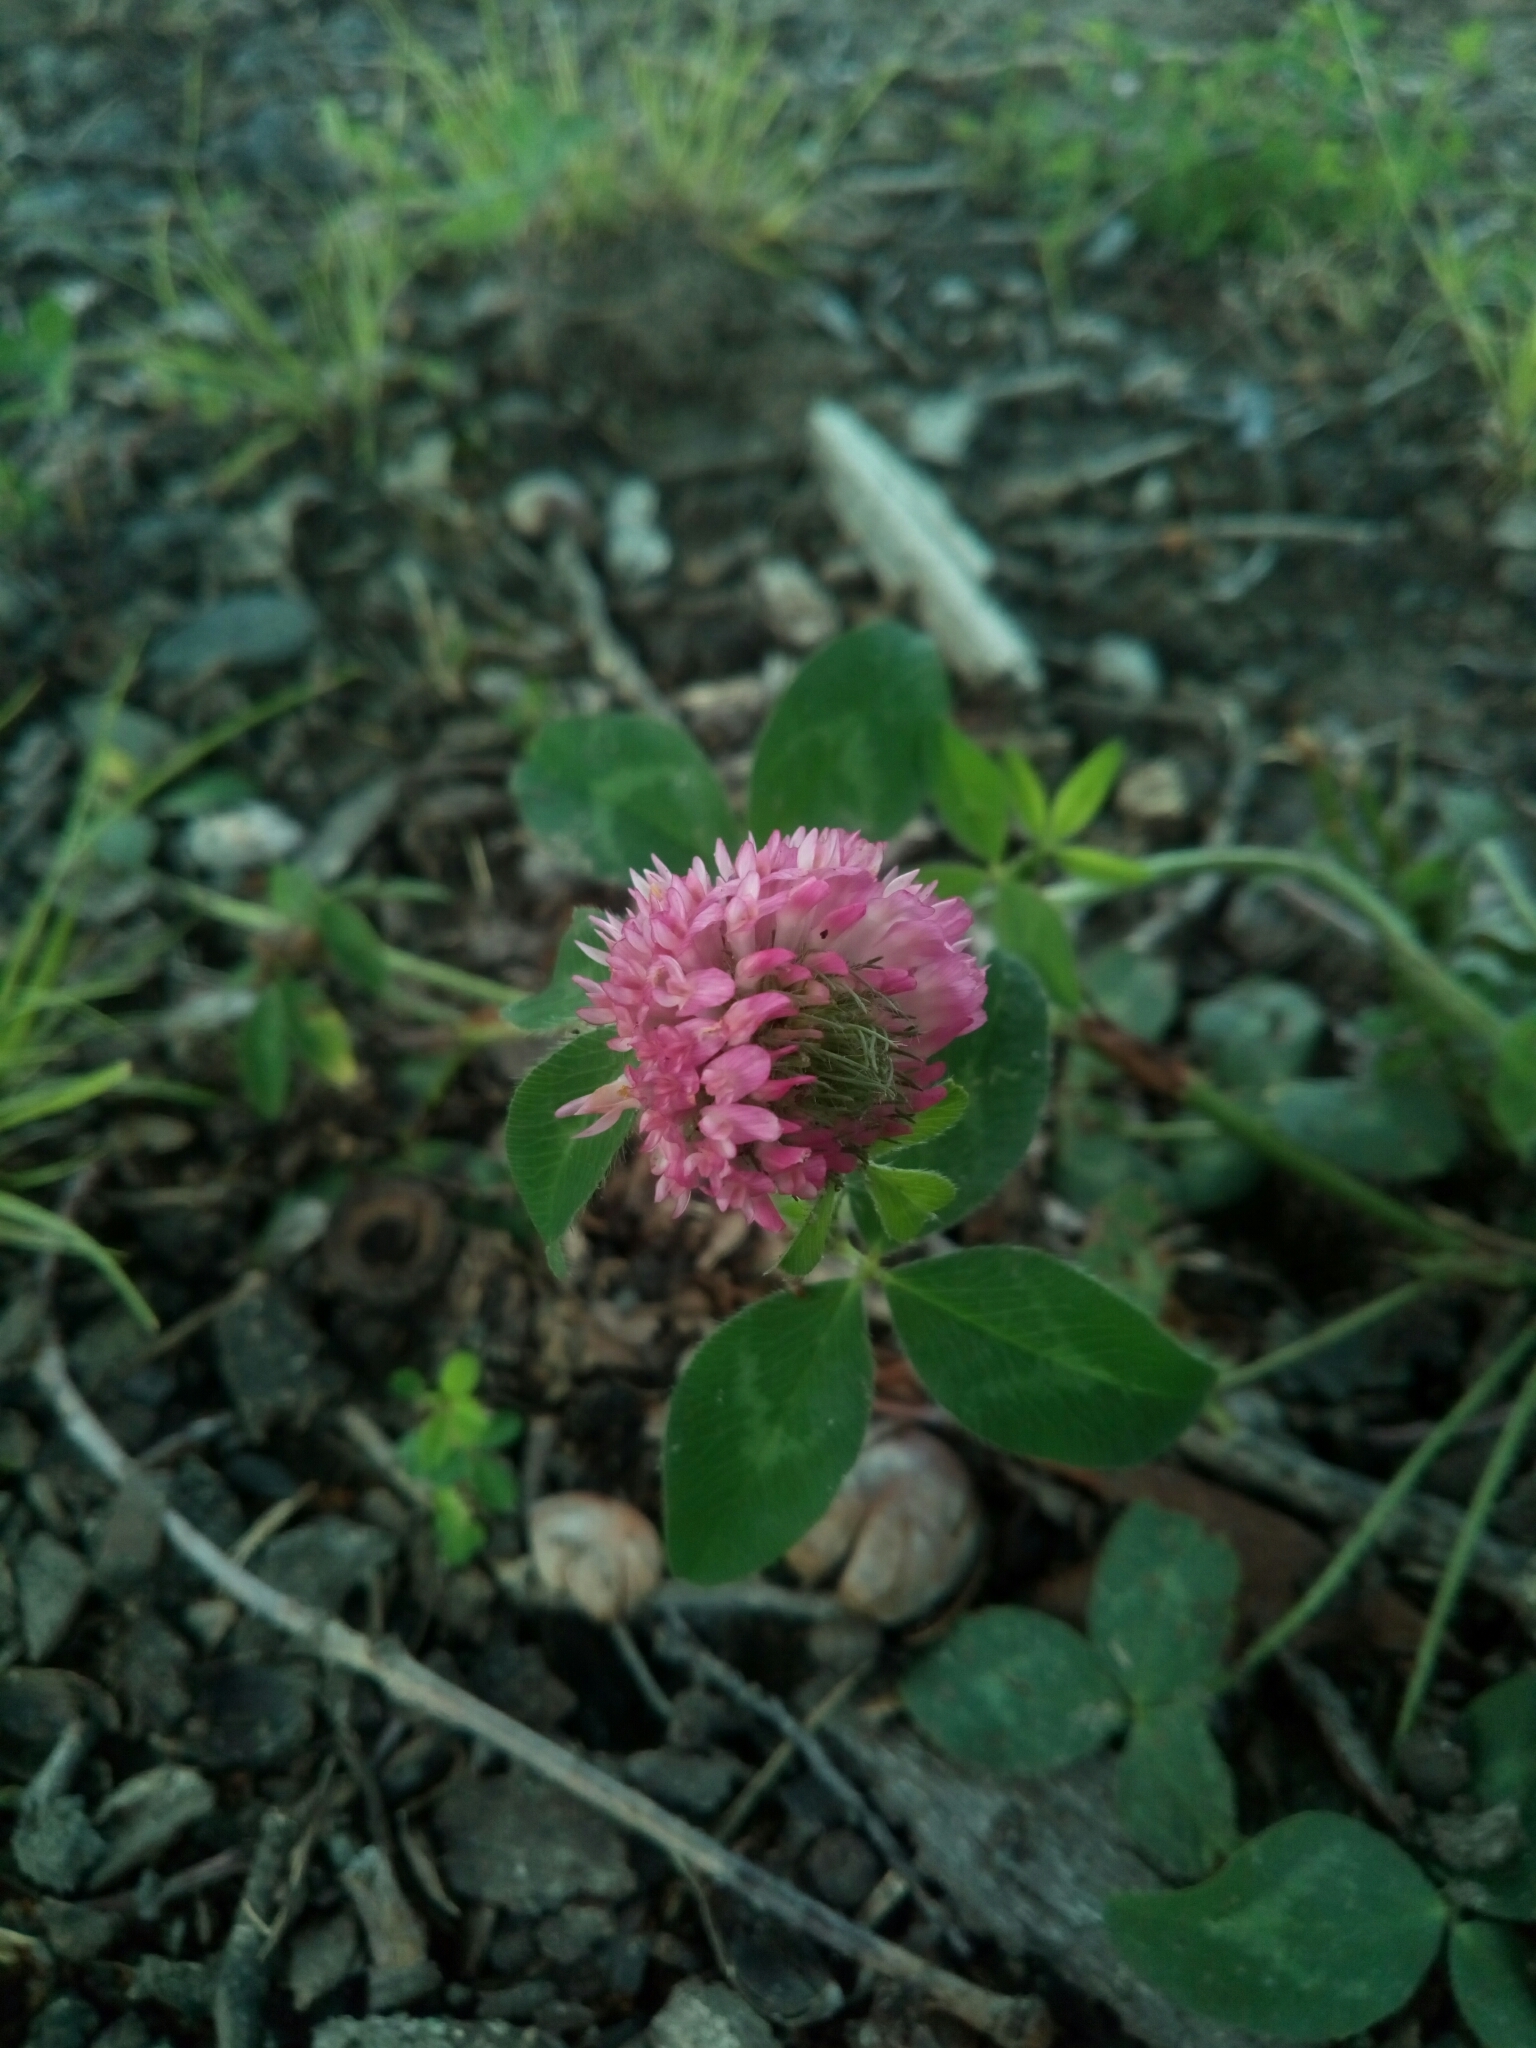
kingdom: Plantae
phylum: Tracheophyta
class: Magnoliopsida
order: Fabales
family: Fabaceae
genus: Trifolium
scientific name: Trifolium pratense
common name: Red clover
